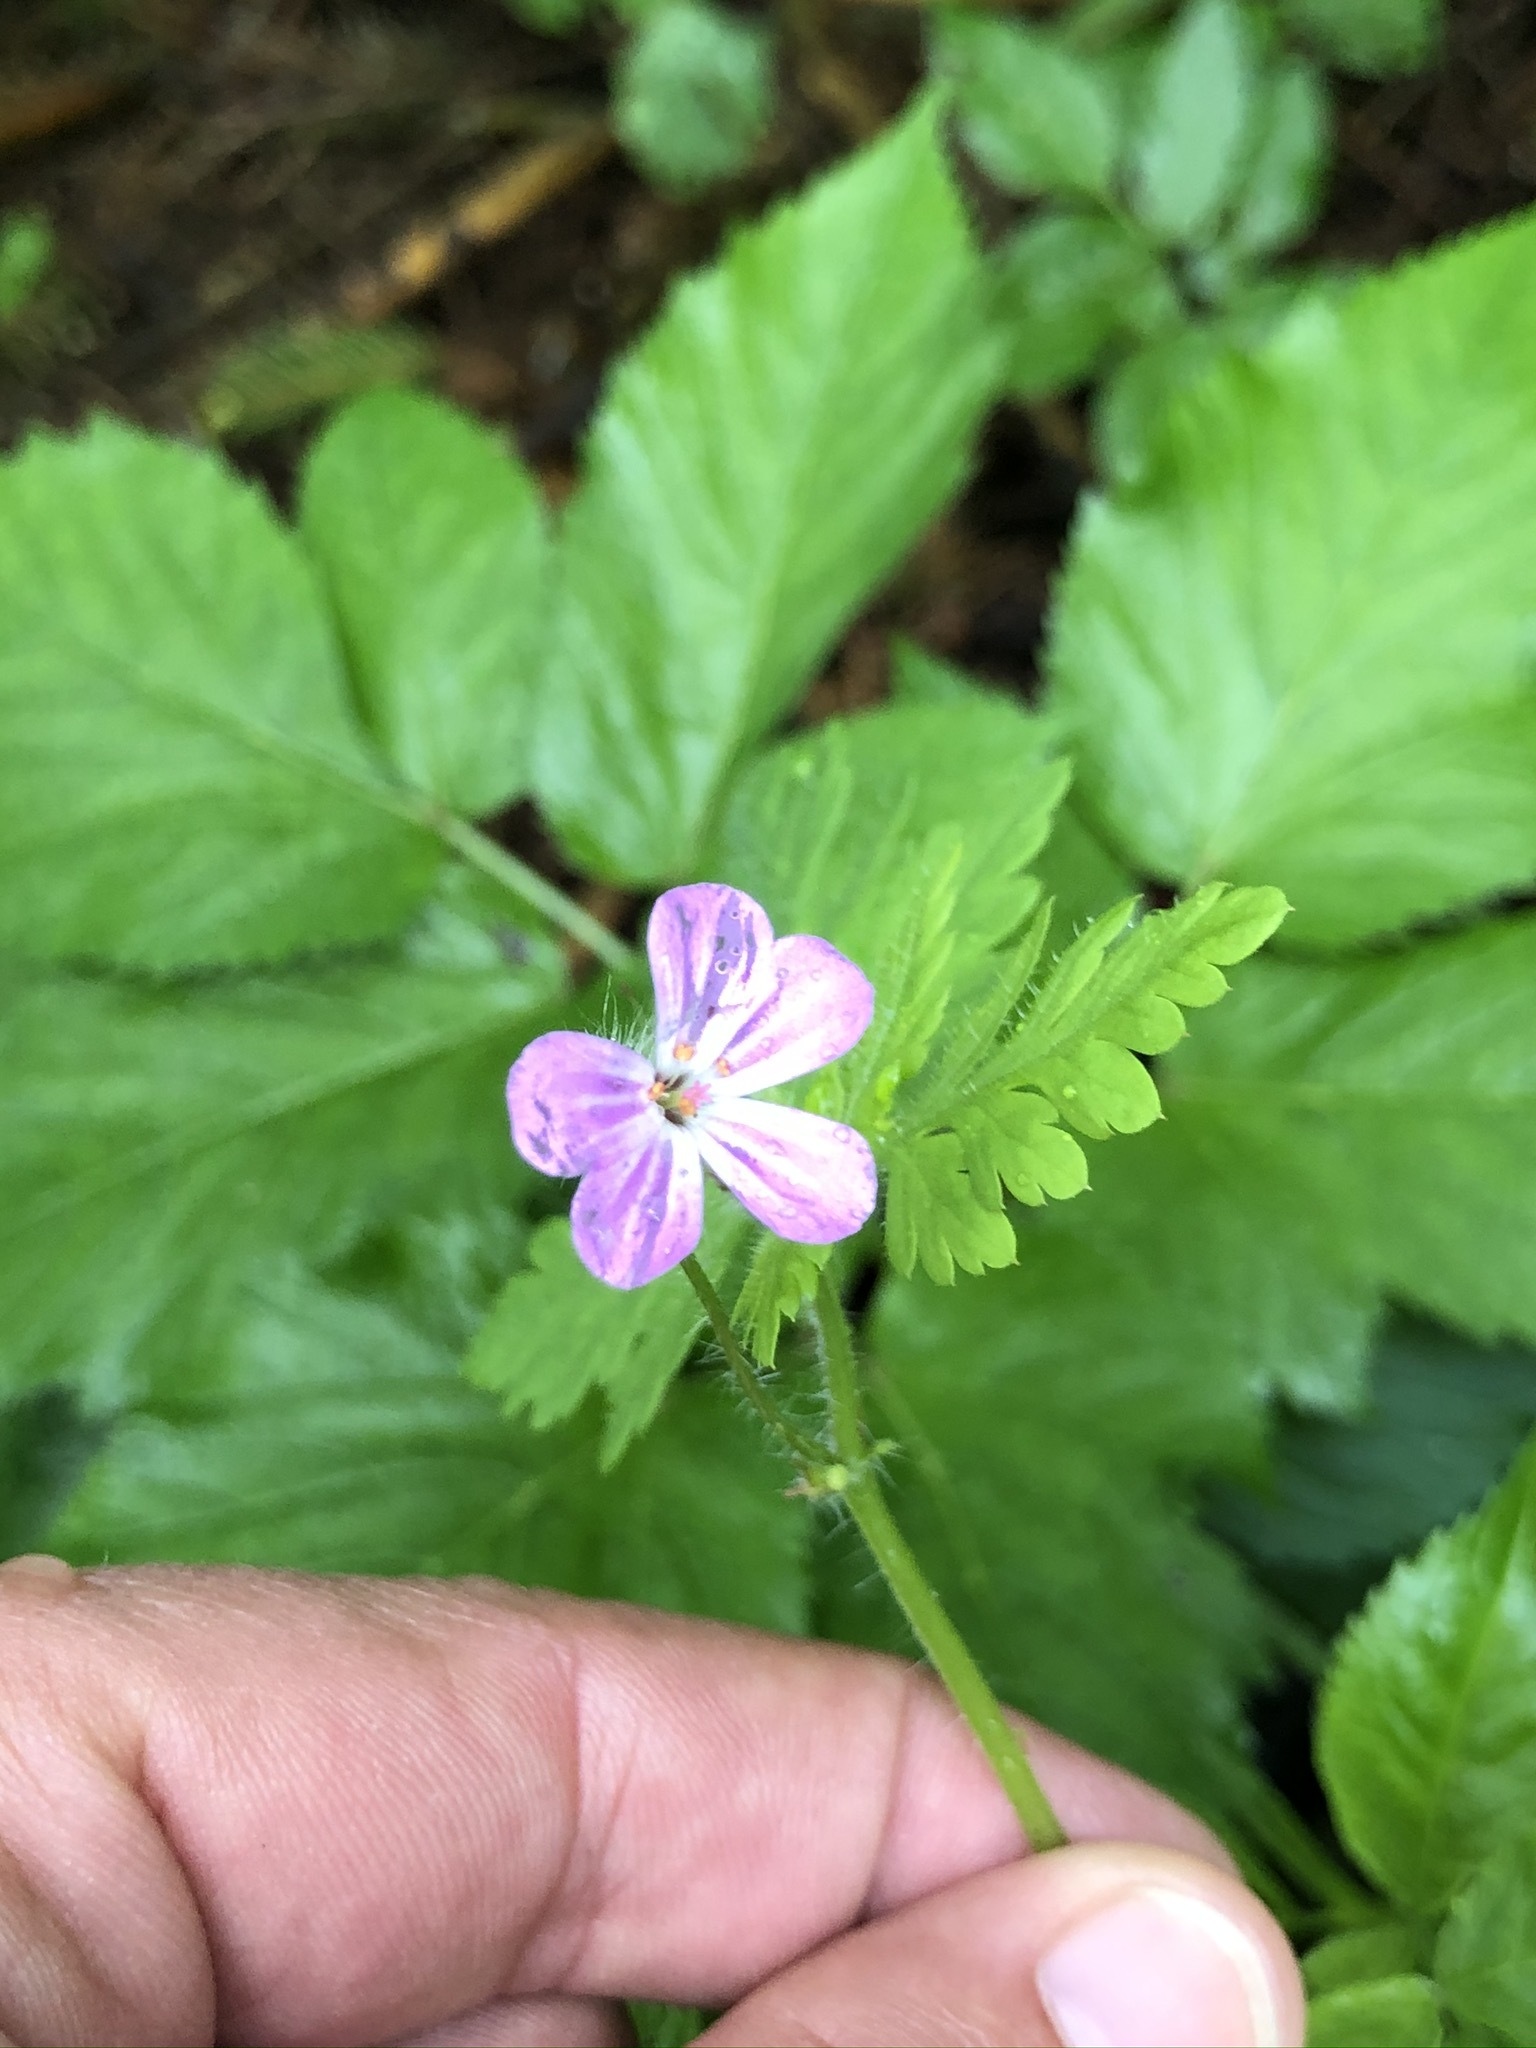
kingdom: Plantae
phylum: Tracheophyta
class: Magnoliopsida
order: Geraniales
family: Geraniaceae
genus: Geranium
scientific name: Geranium robertianum
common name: Herb-robert
